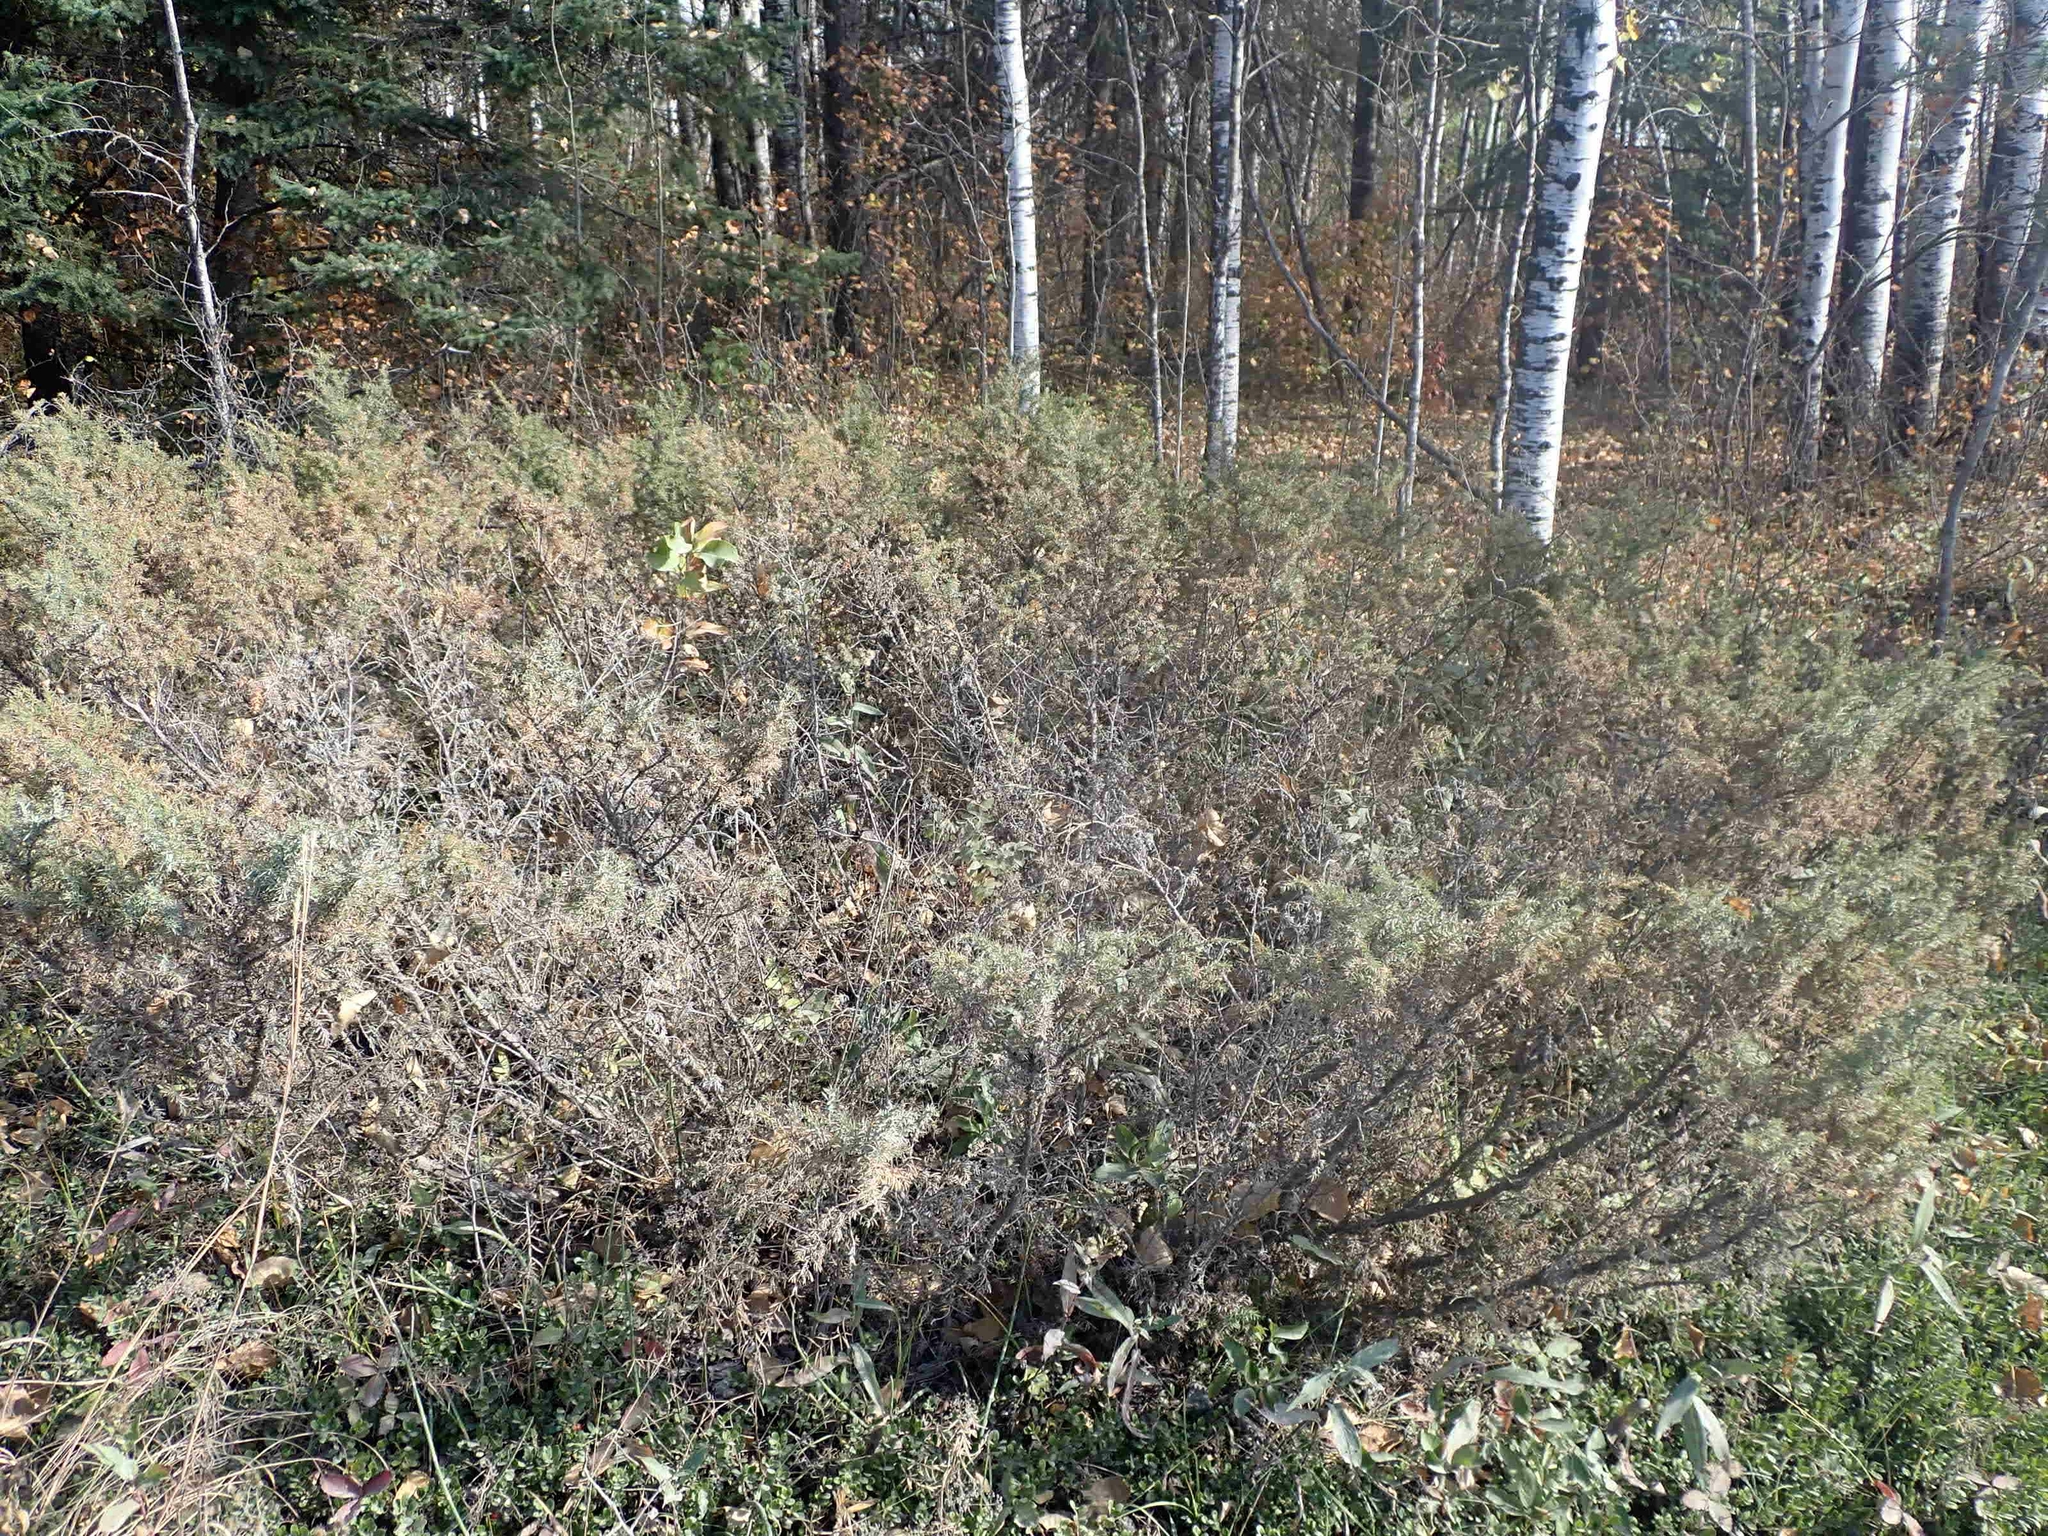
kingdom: Plantae
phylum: Tracheophyta
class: Pinopsida
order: Pinales
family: Cupressaceae
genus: Juniperus
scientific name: Juniperus communis
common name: Common juniper
